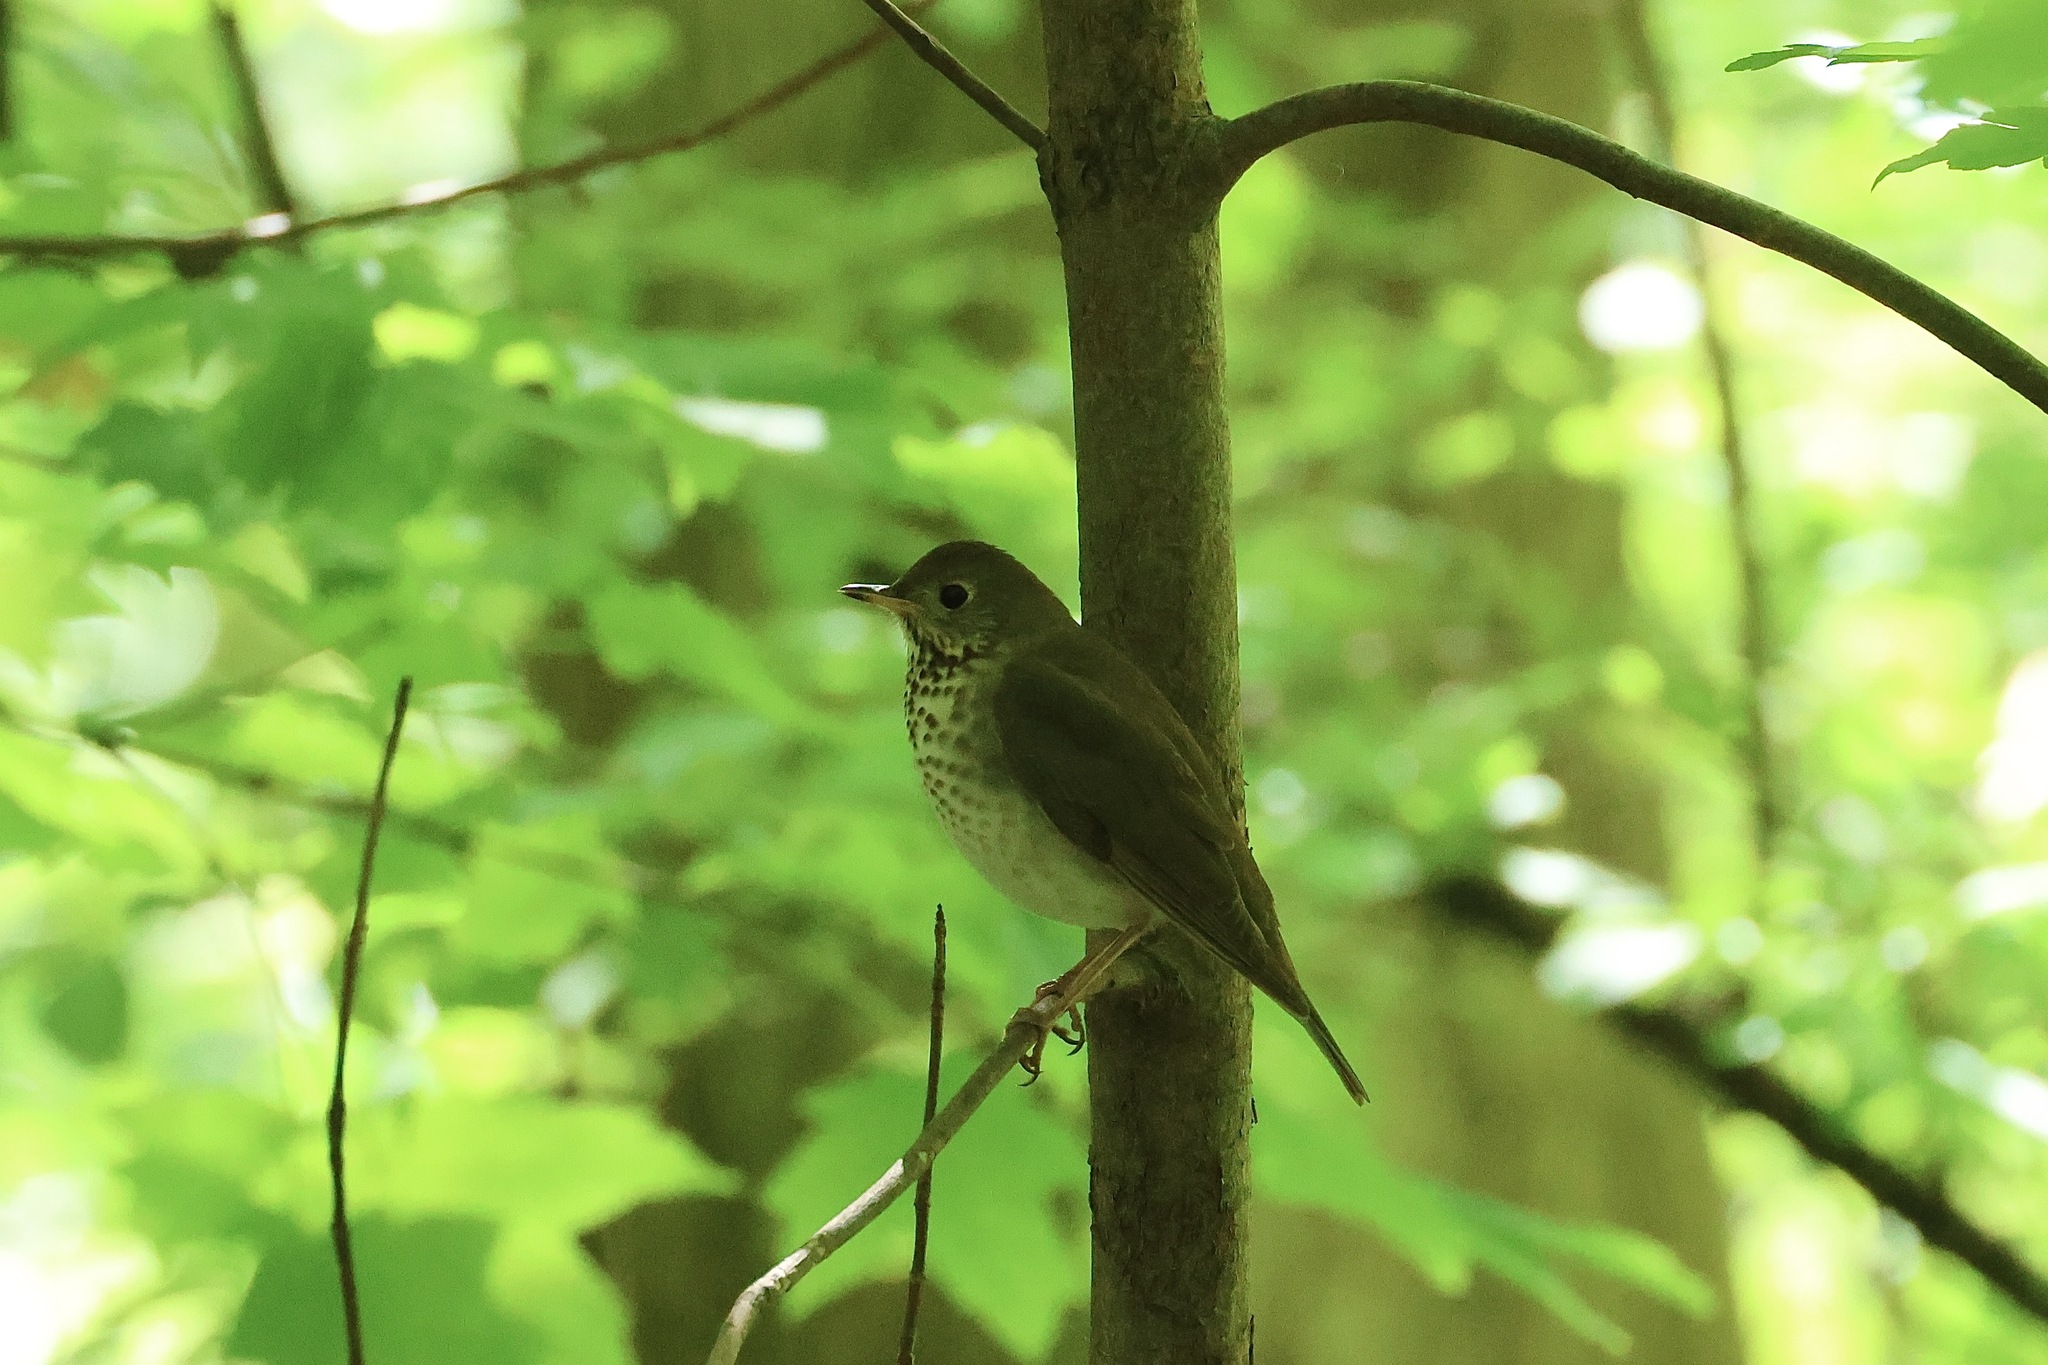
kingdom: Animalia
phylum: Chordata
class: Aves
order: Passeriformes
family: Turdidae
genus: Catharus
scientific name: Catharus minimus
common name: Grey-cheeked thrush
